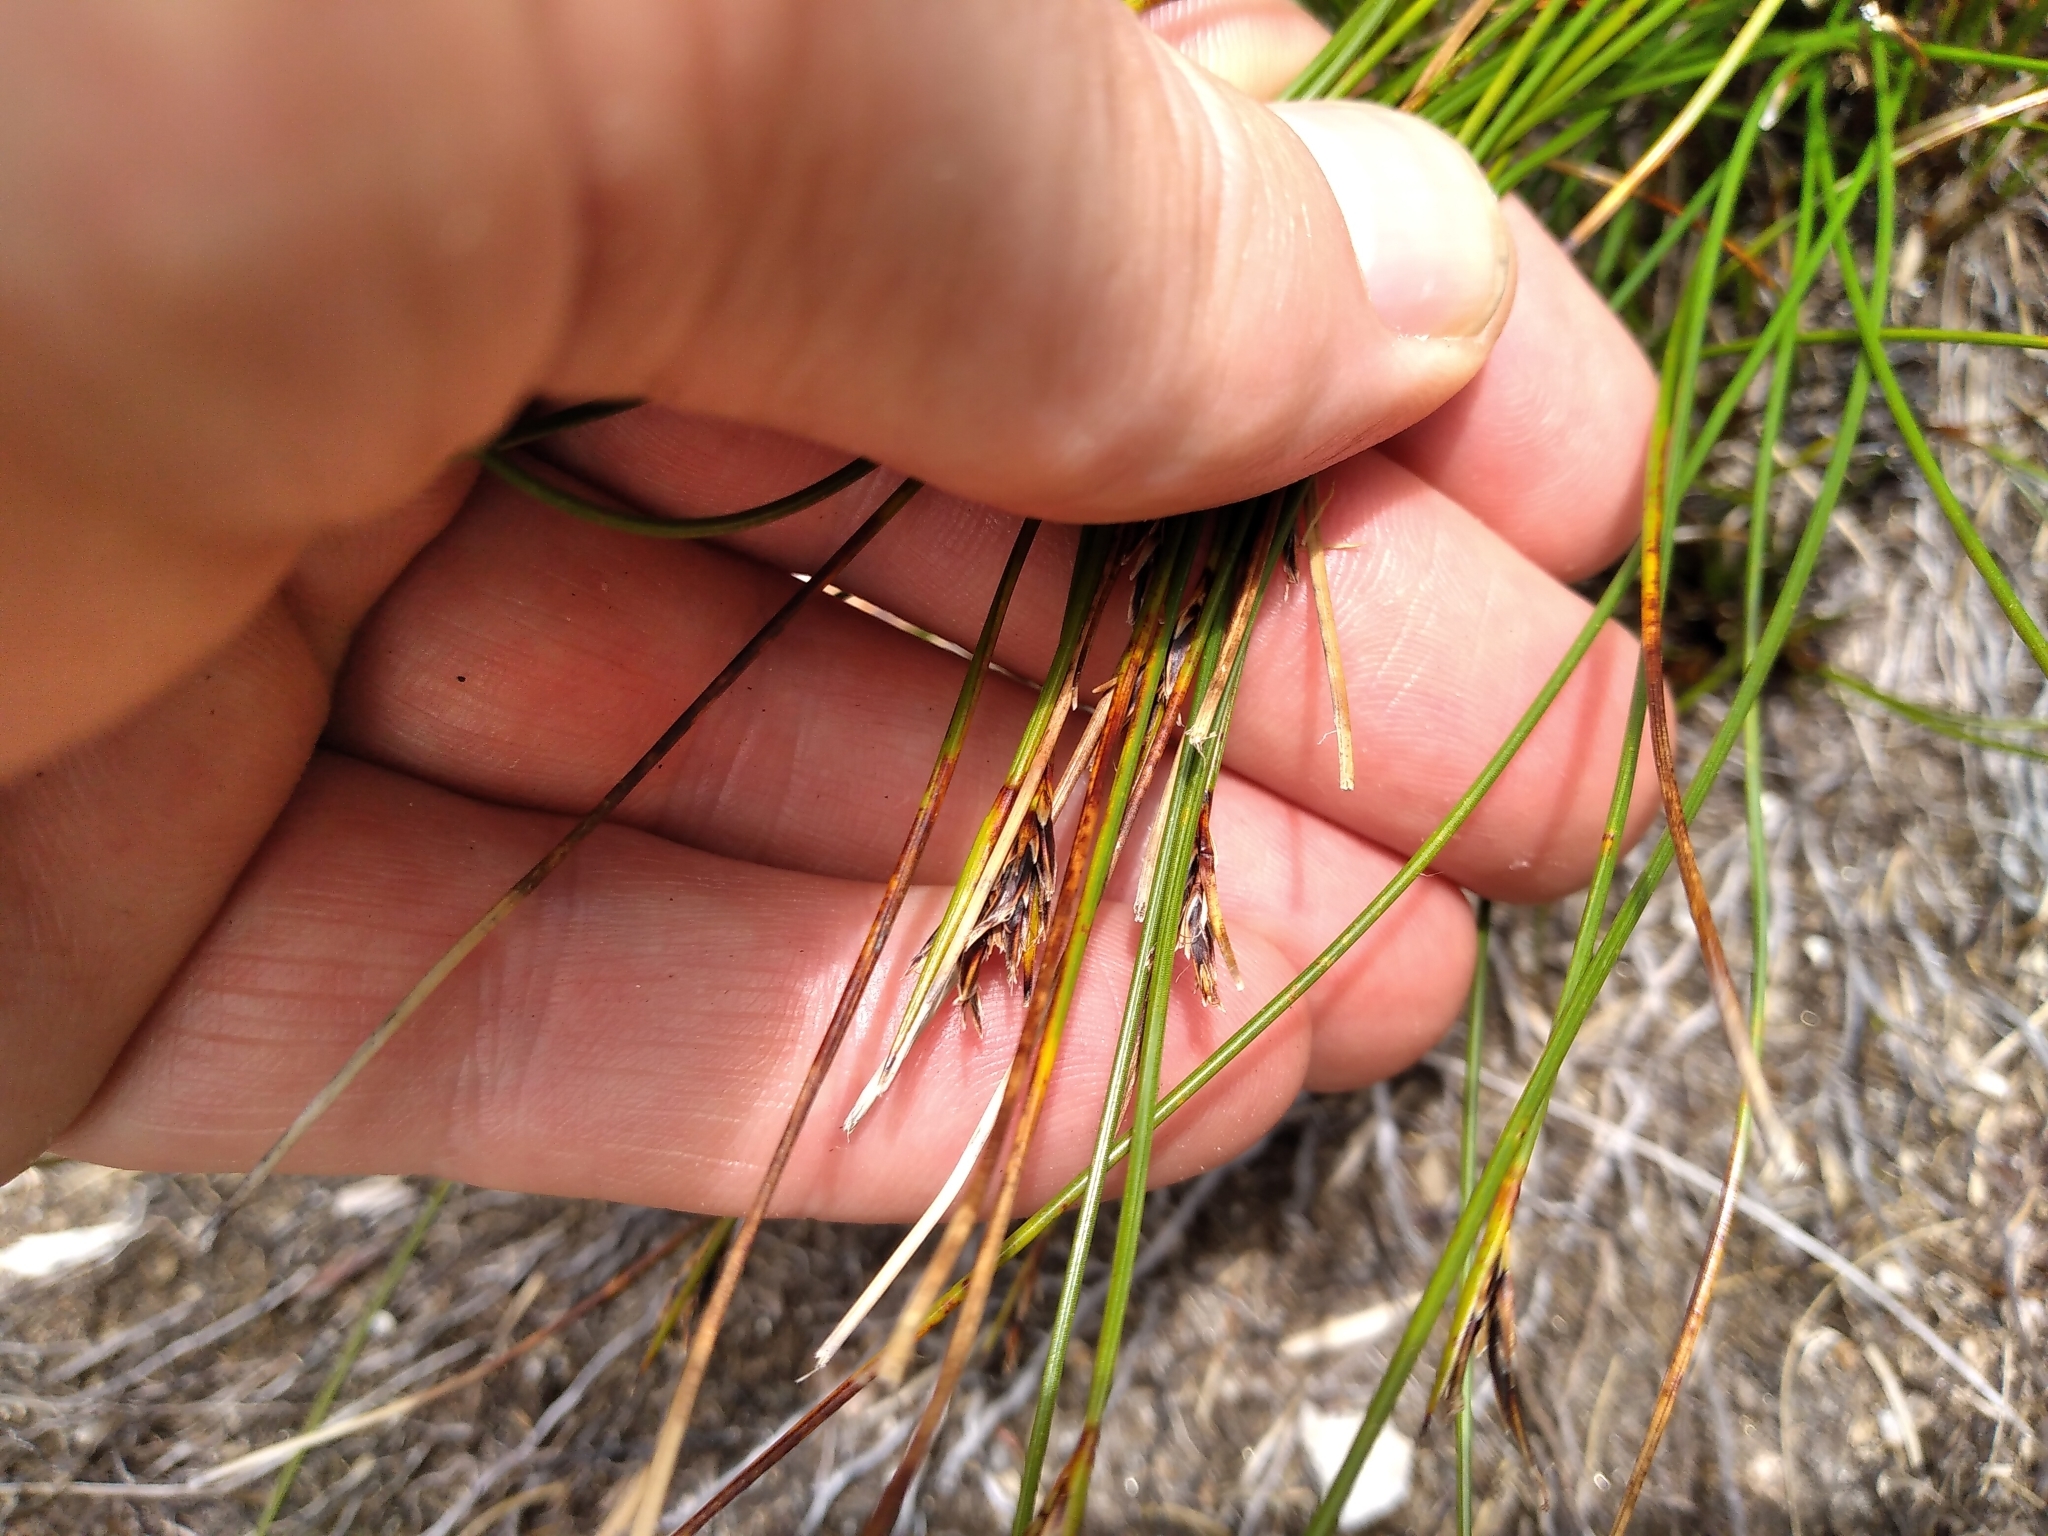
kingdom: Plantae
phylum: Tracheophyta
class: Liliopsida
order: Poales
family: Cyperaceae
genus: Schoenus
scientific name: Schoenus pauciflorus
